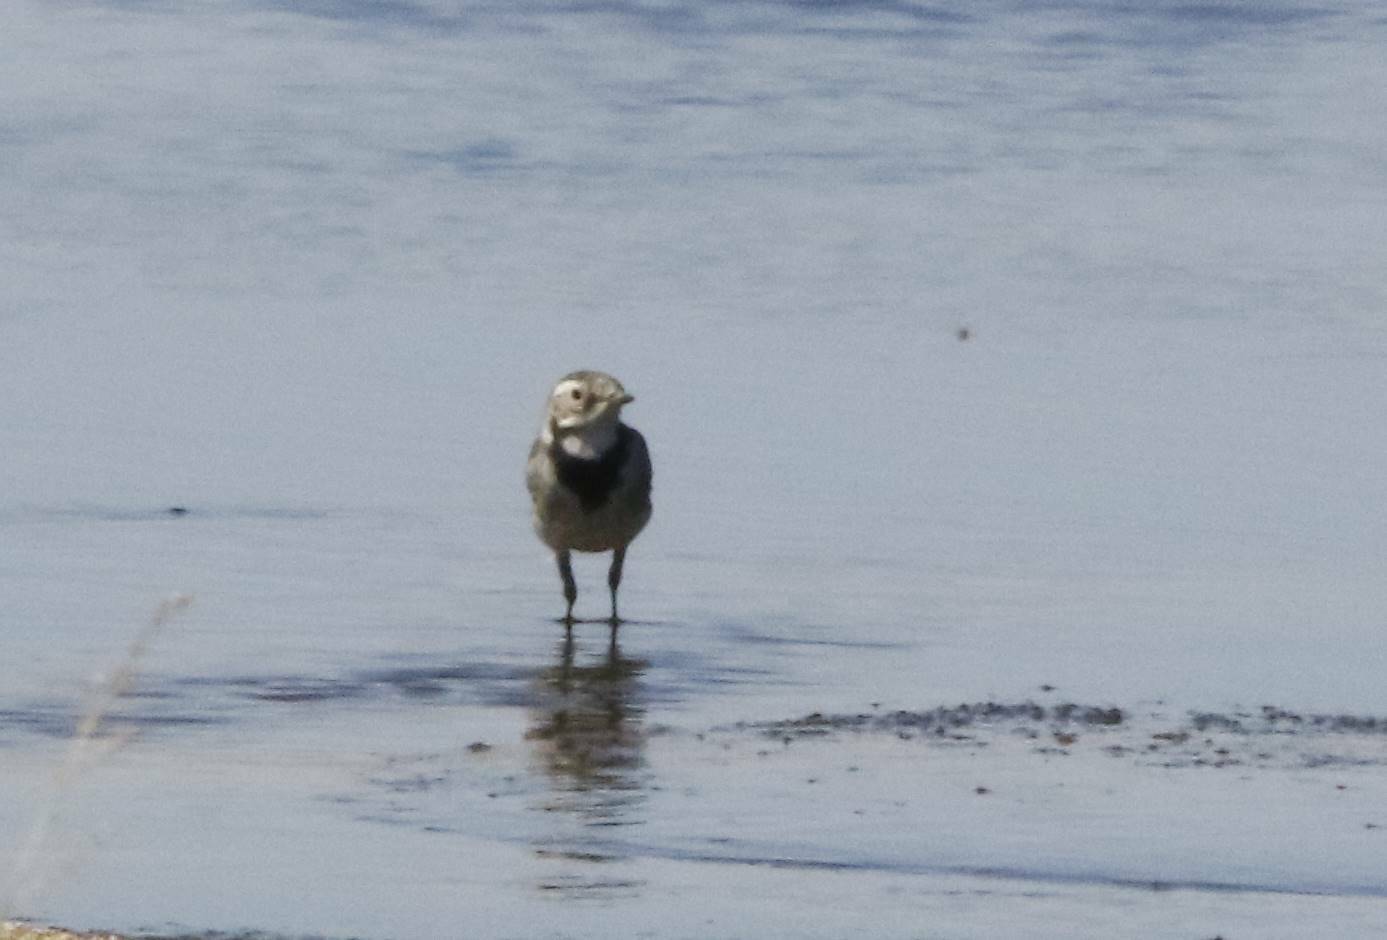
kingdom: Animalia
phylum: Chordata
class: Aves
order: Passeriformes
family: Motacillidae
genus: Motacilla
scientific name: Motacilla alba
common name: White wagtail
